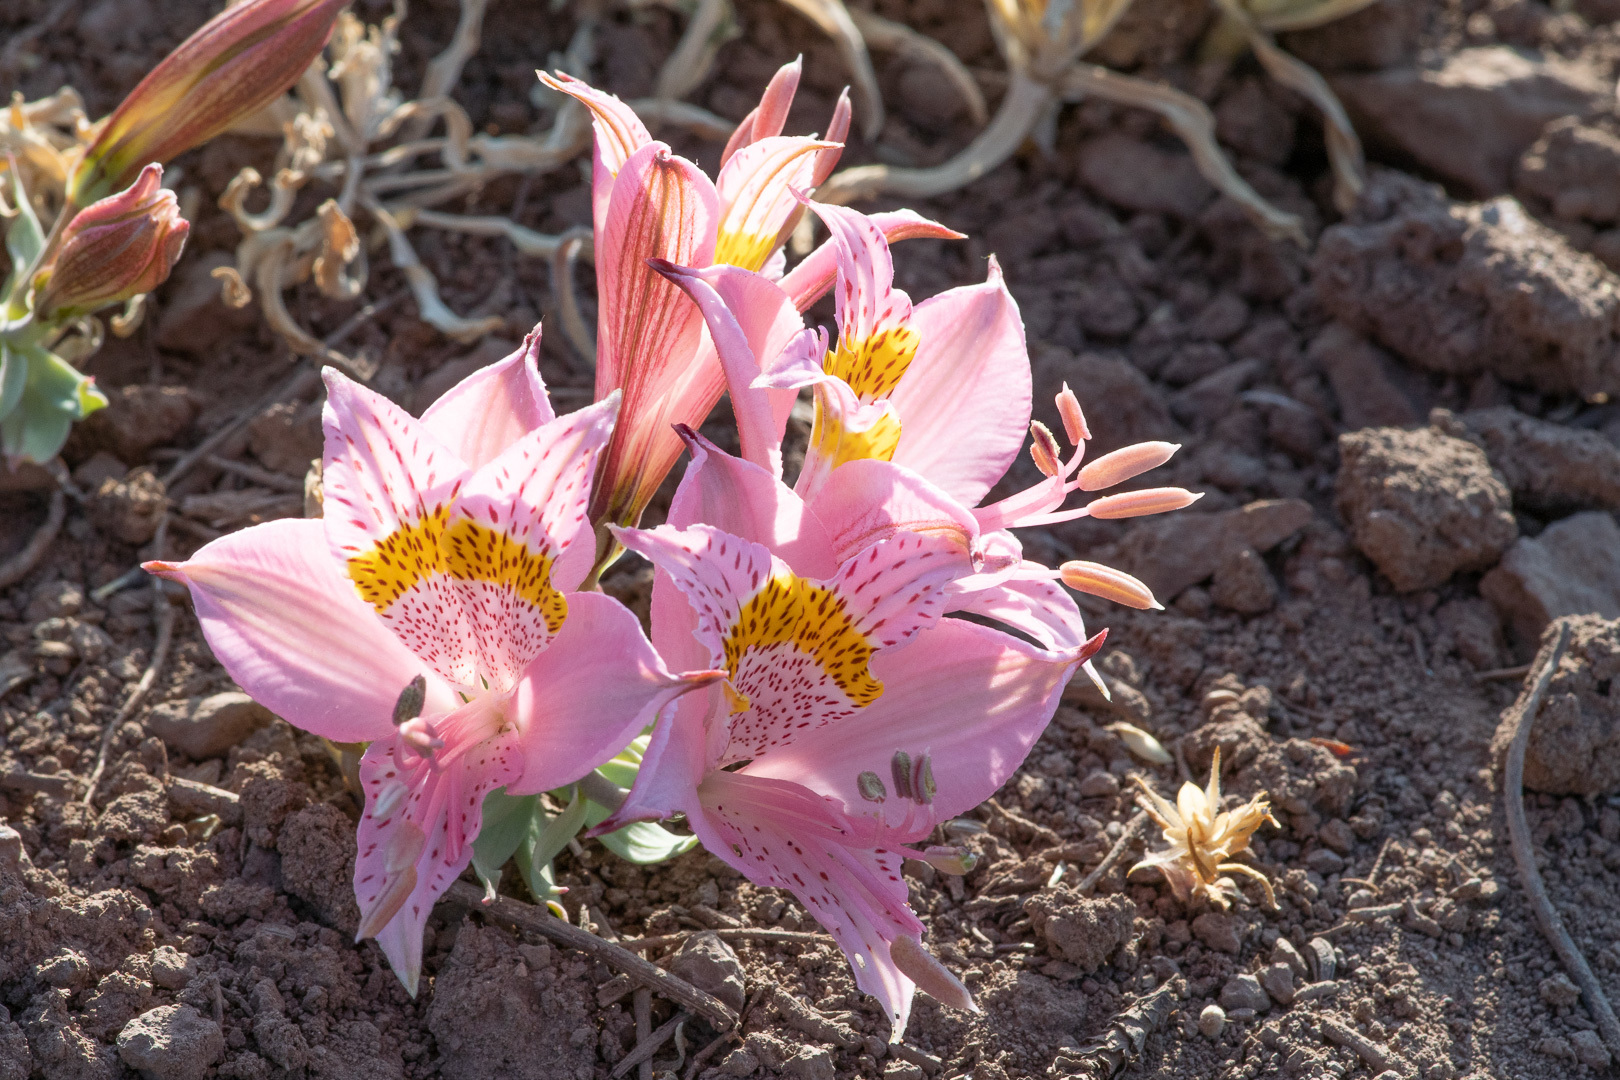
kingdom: Plantae
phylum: Tracheophyta
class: Liliopsida
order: Liliales
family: Alstroemeriaceae
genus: Alstroemeria
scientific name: Alstroemeria pallida
